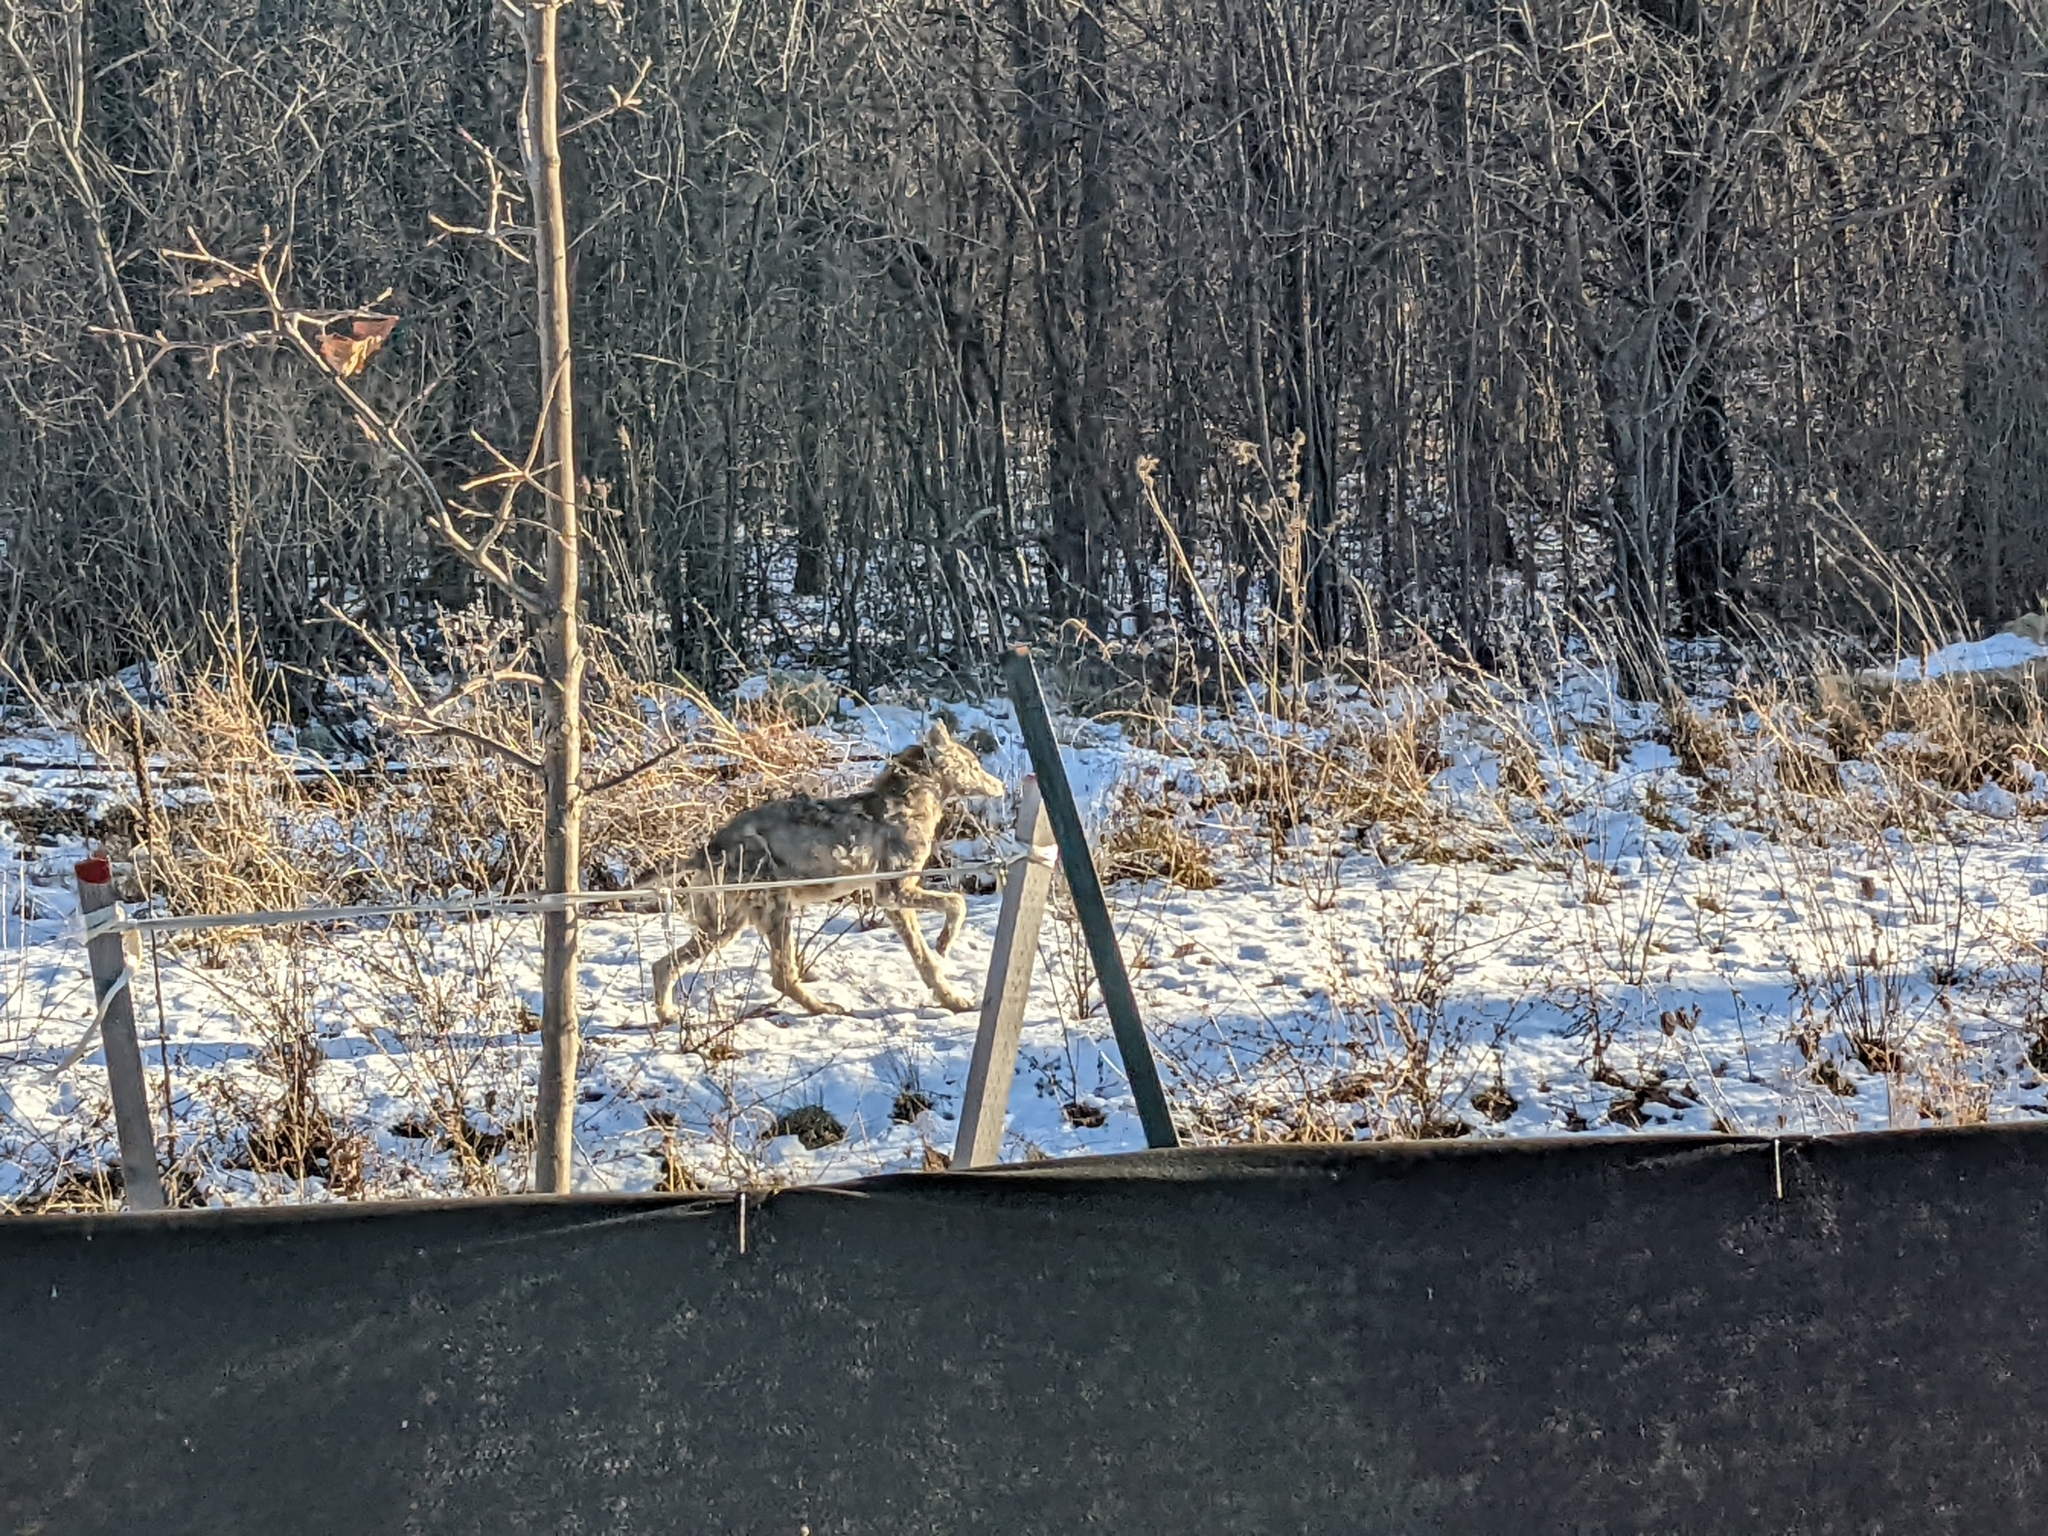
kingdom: Animalia
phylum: Chordata
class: Mammalia
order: Carnivora
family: Canidae
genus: Canis
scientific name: Canis latrans
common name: Coyote
